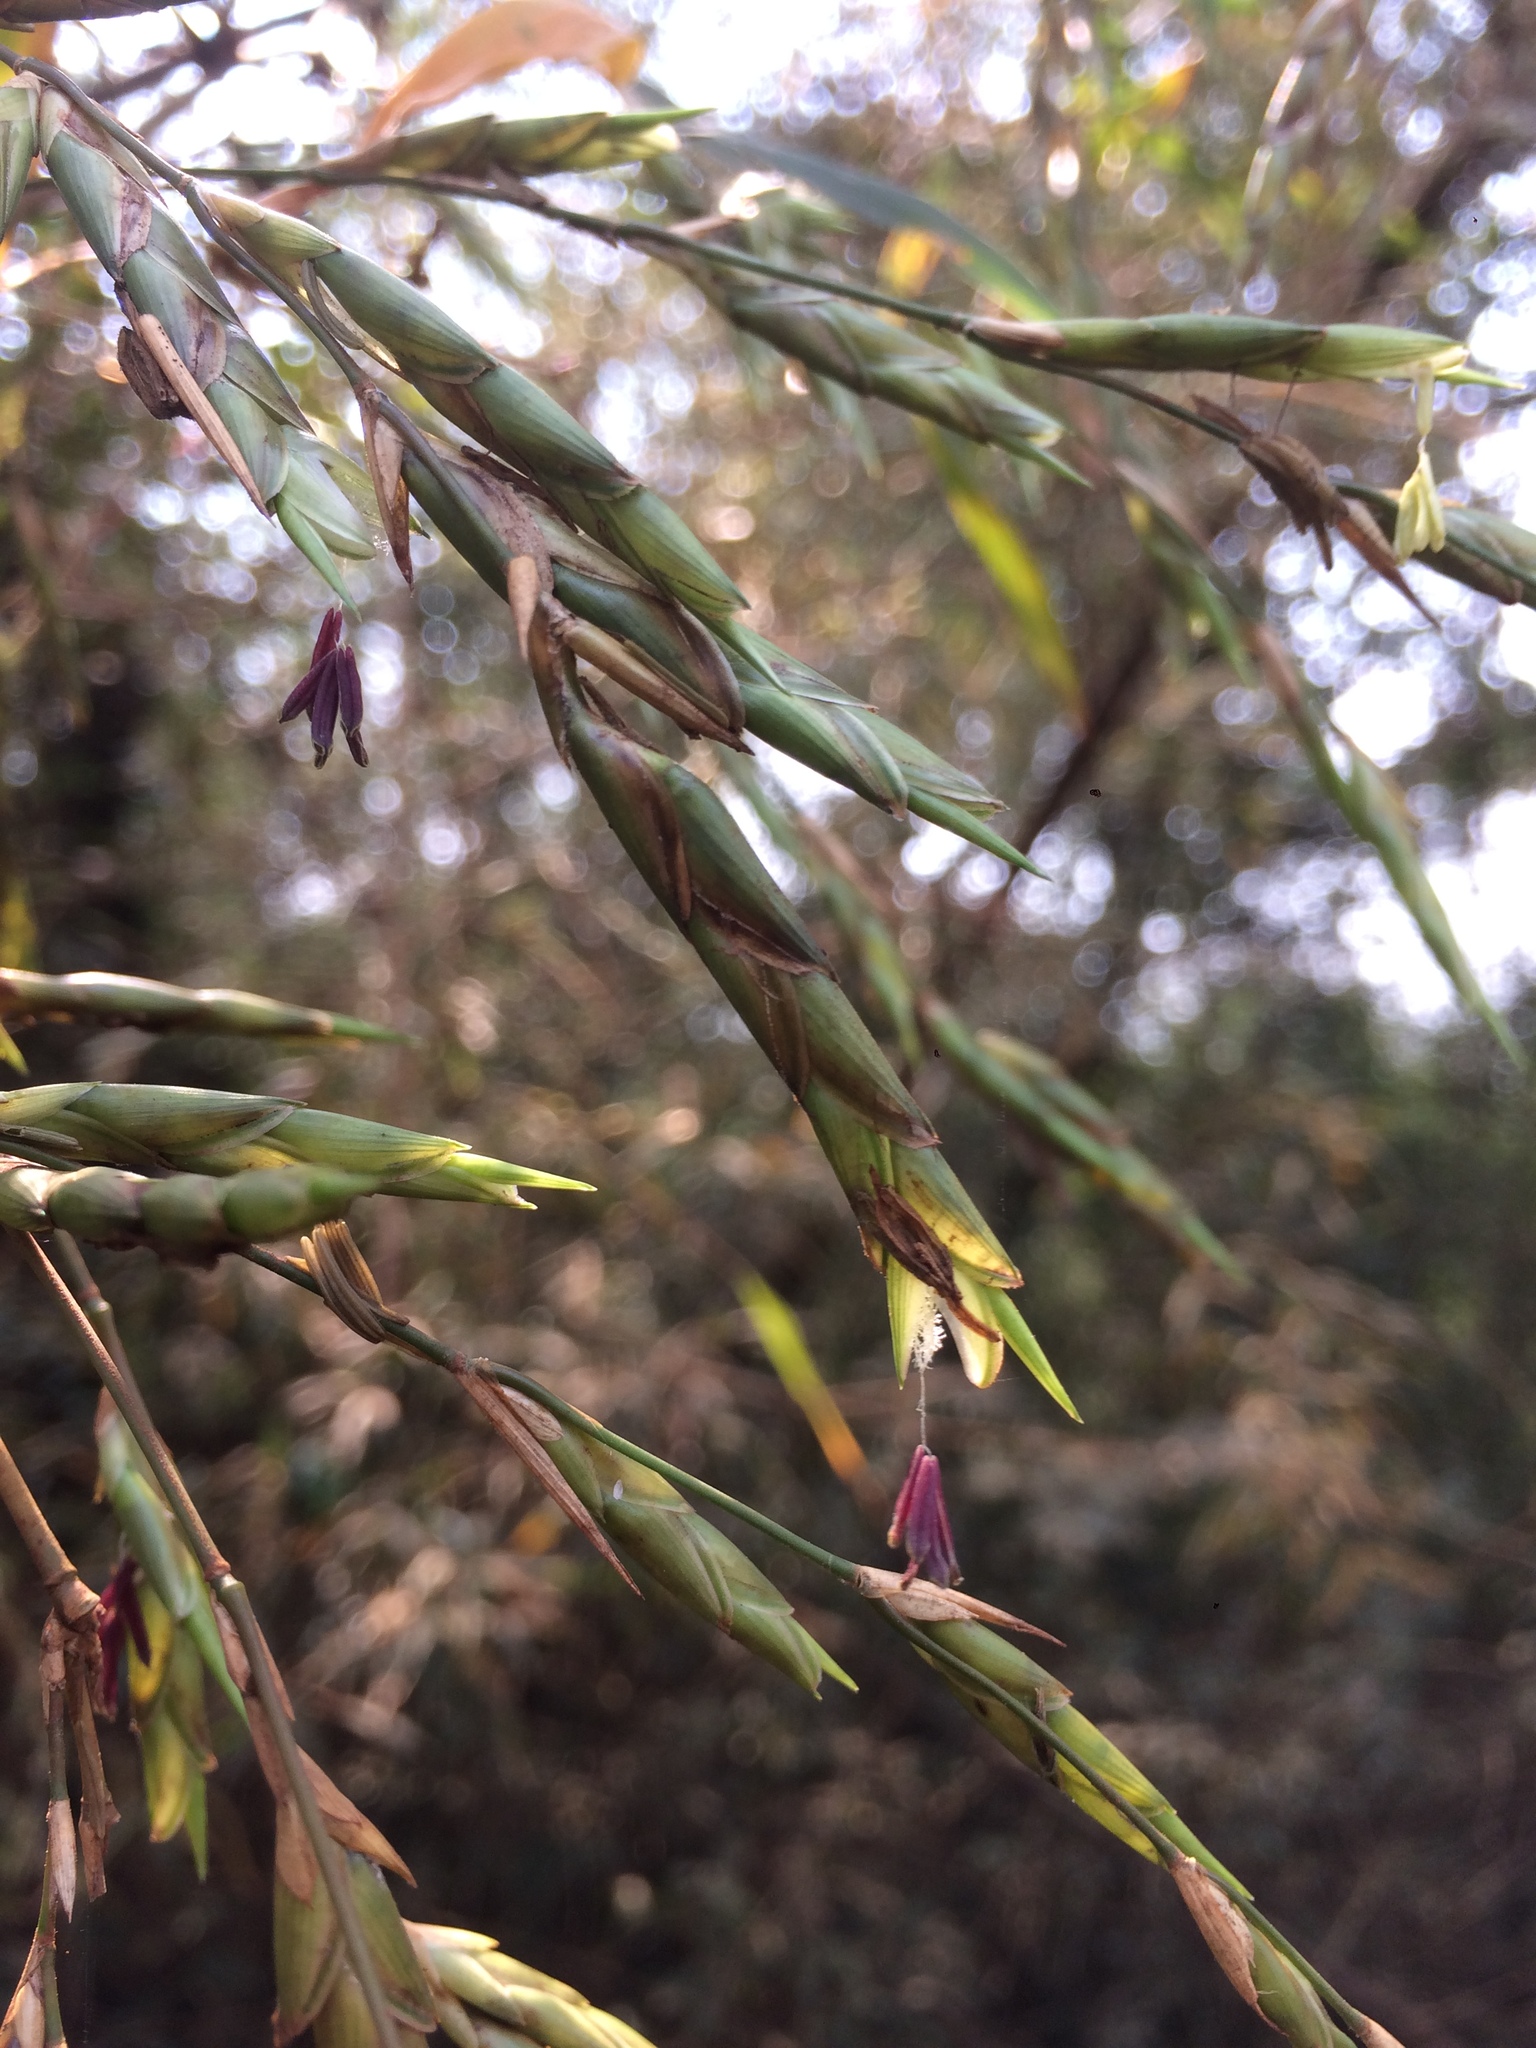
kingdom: Plantae
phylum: Tracheophyta
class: Liliopsida
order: Poales
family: Poaceae
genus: Guadua
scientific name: Guadua trinii
